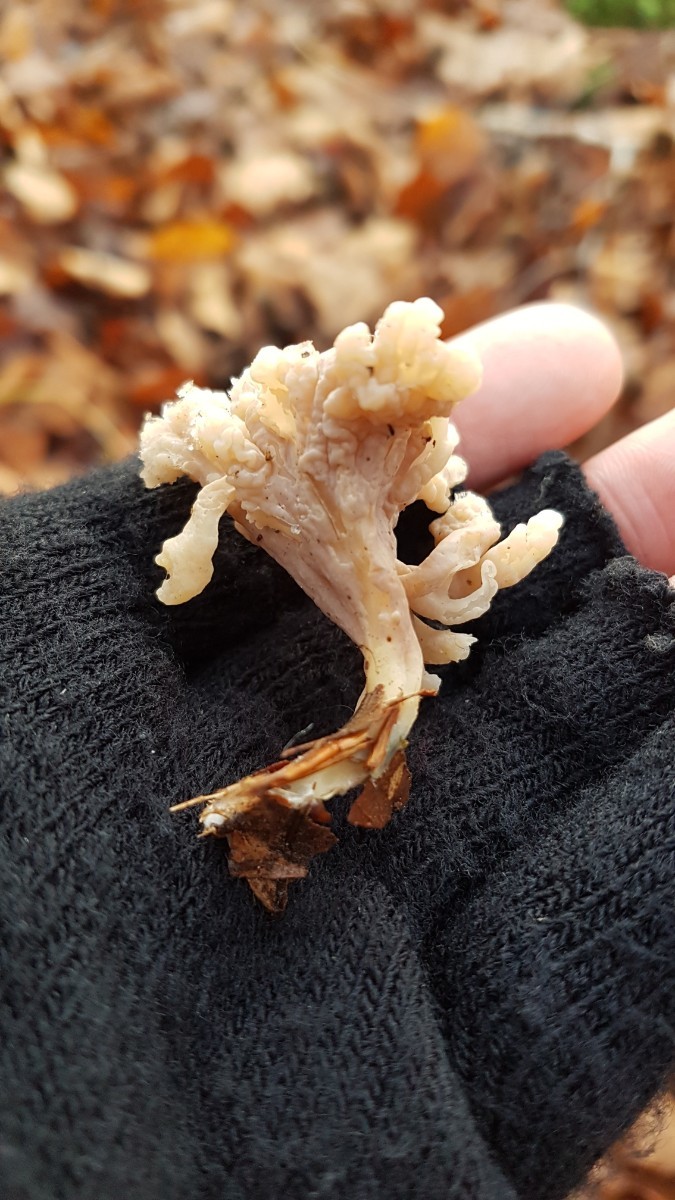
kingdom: Fungi
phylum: Basidiomycota
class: Agaricomycetes
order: Cantharellales
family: Hydnaceae
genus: Clavulina
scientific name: Clavulina rugosa
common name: Wrinkled club
